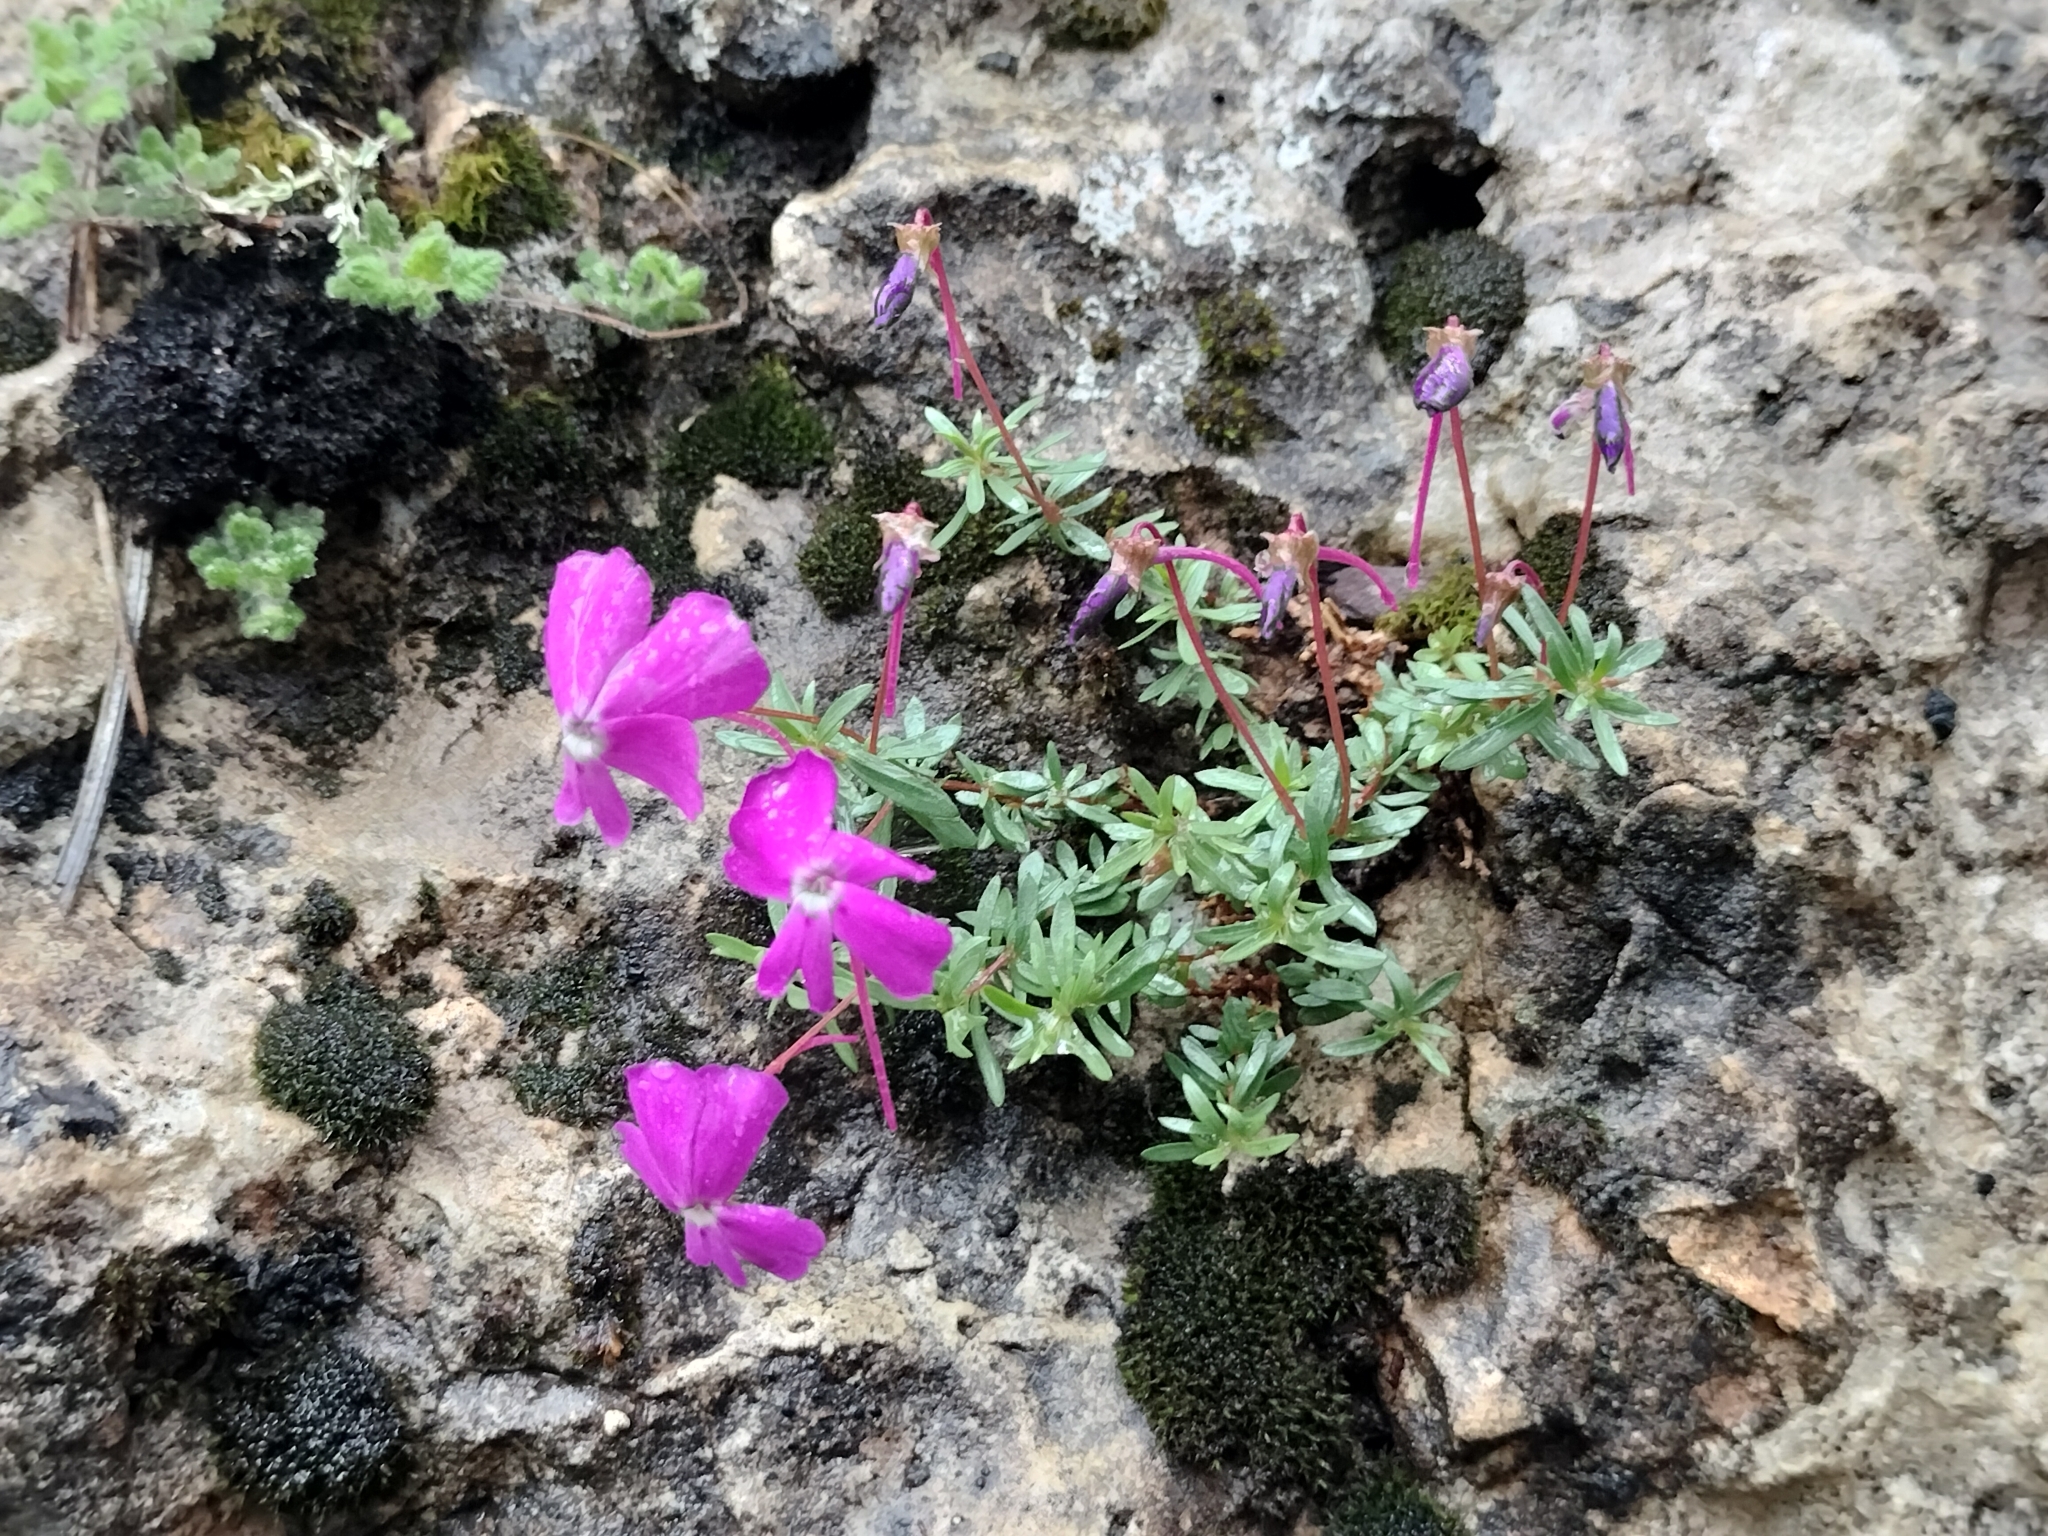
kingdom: Plantae
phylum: Tracheophyta
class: Magnoliopsida
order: Malpighiales
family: Violaceae
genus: Viola
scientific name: Viola cazorlensis
